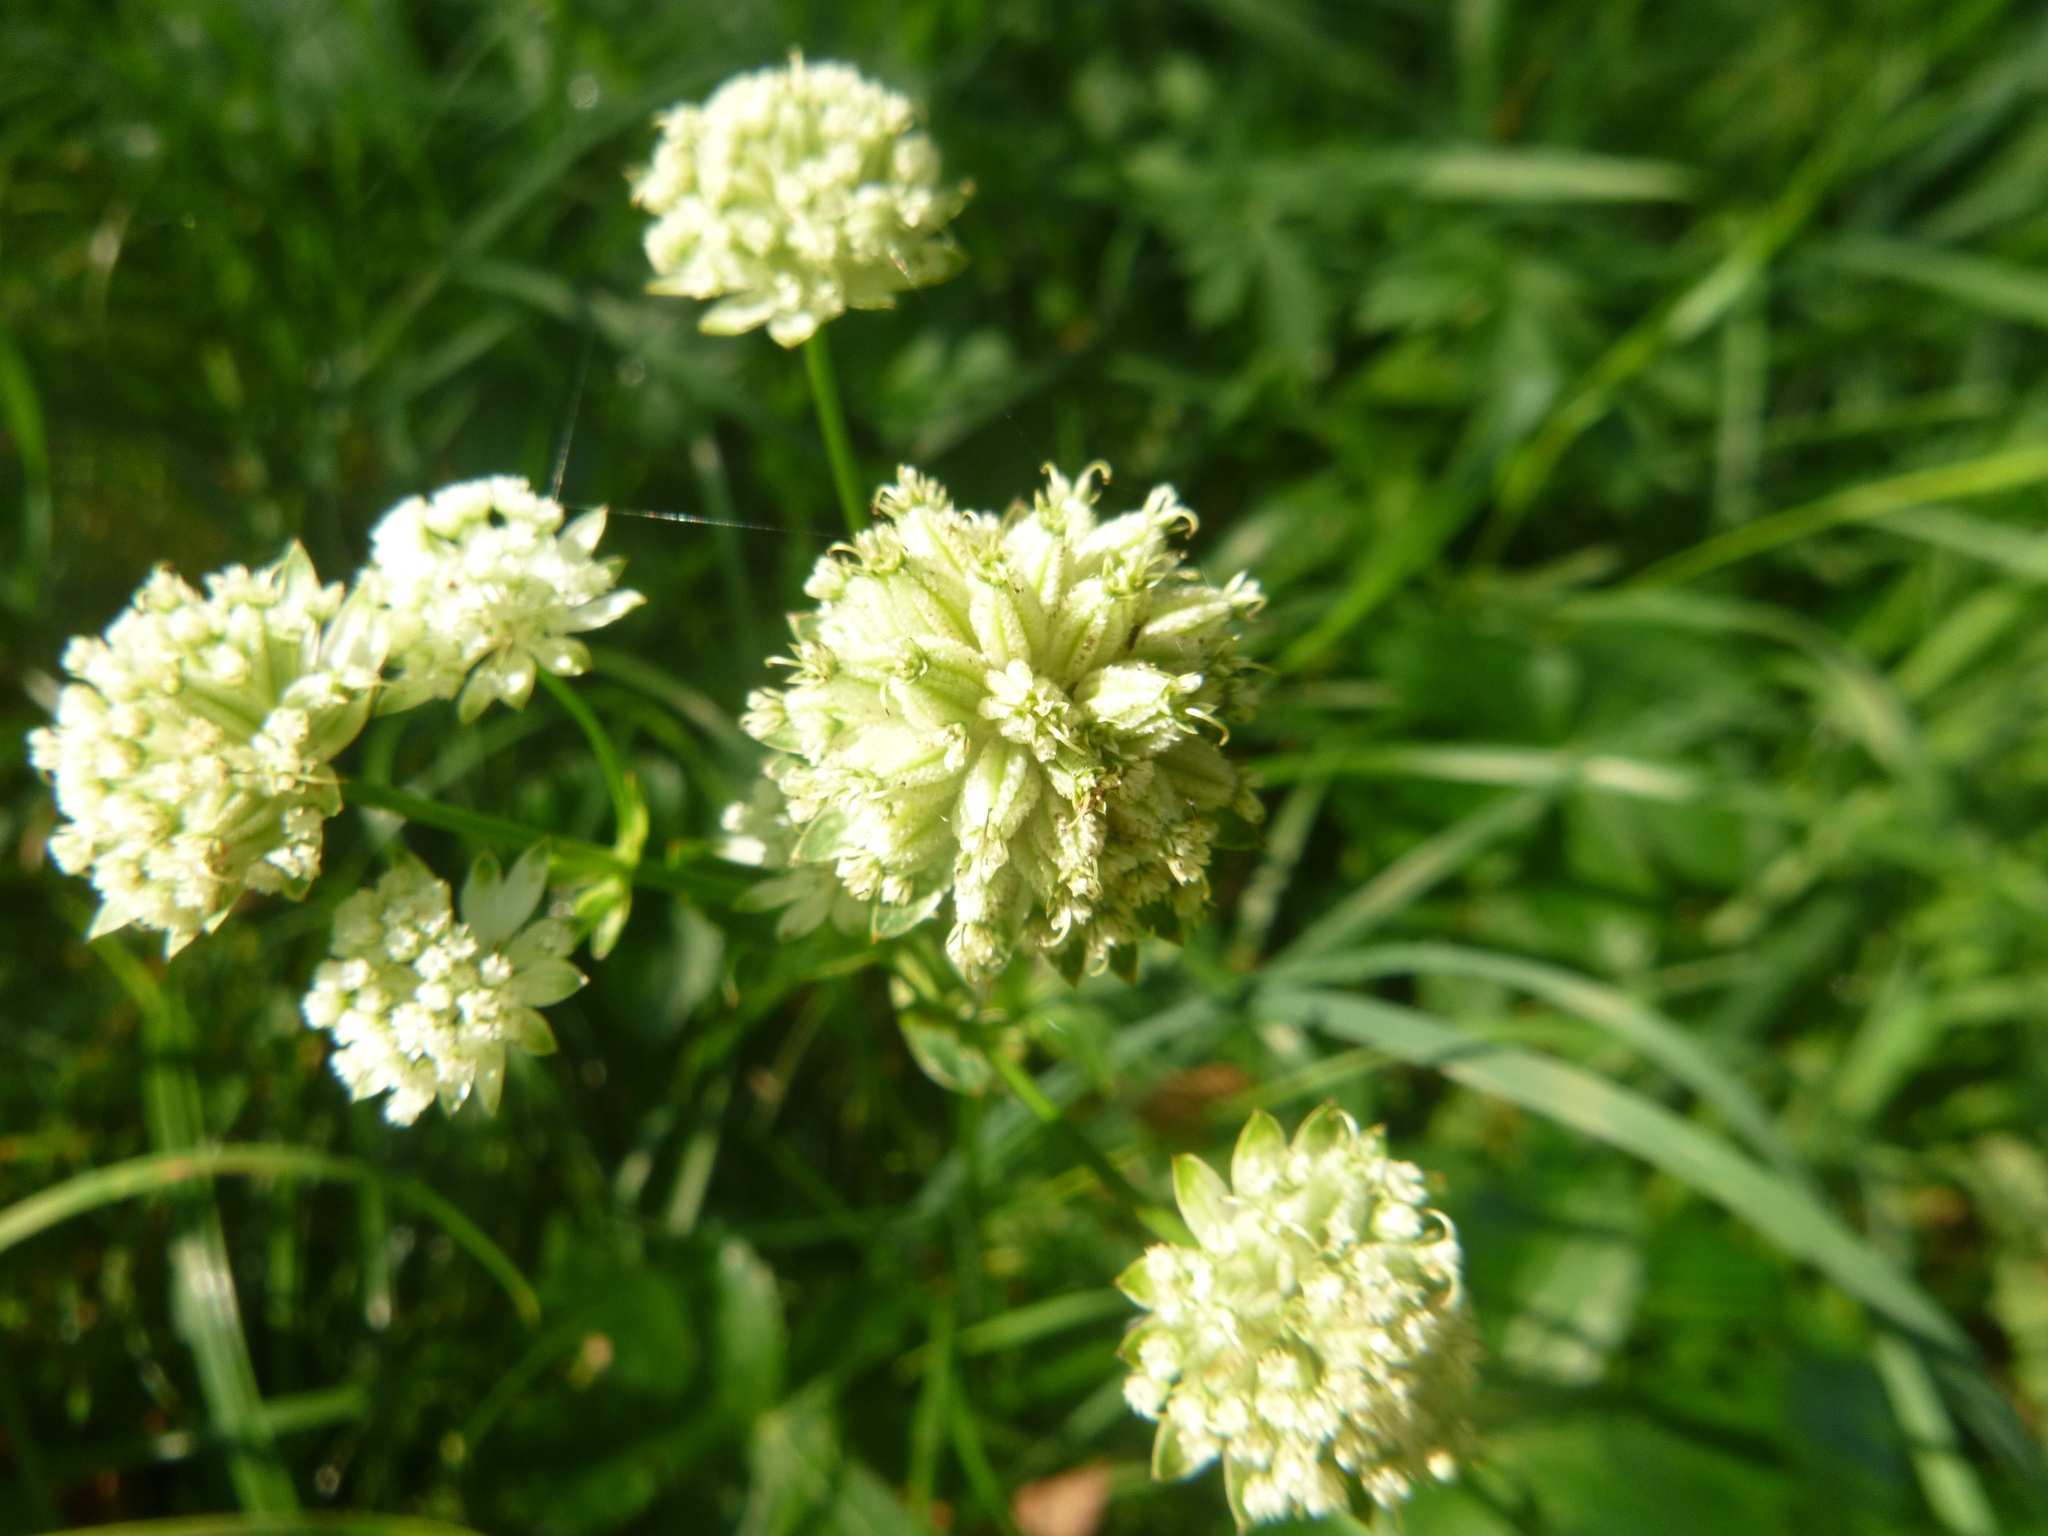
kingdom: Plantae
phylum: Tracheophyta
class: Magnoliopsida
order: Apiales
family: Apiaceae
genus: Astrantia
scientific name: Astrantia major
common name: Greater masterwort
